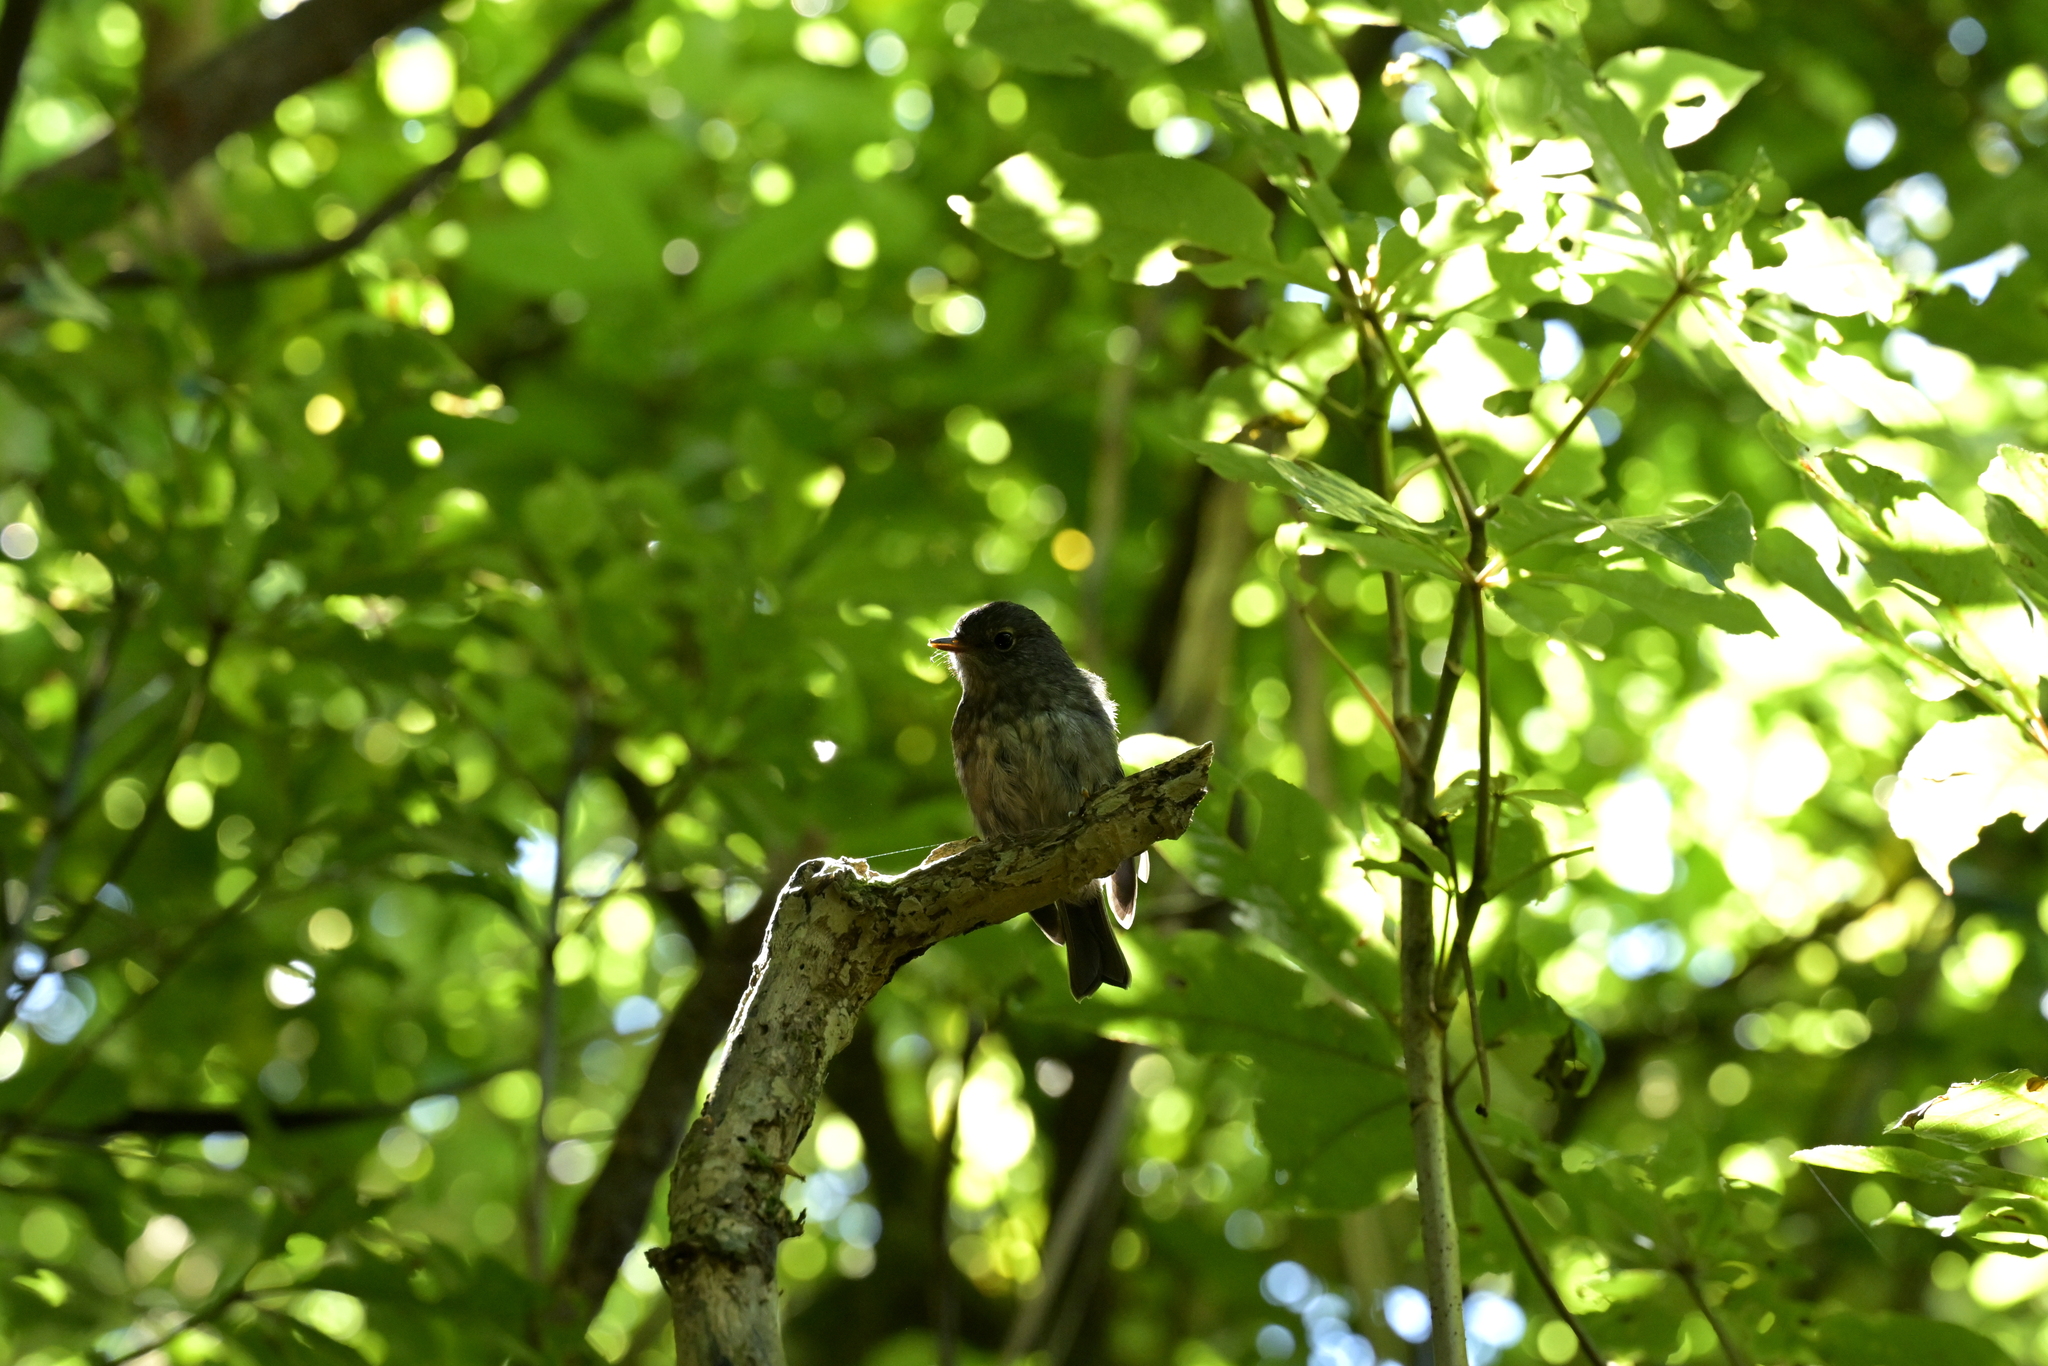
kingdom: Animalia
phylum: Chordata
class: Aves
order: Passeriformes
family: Petroicidae
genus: Petroica
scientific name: Petroica australis
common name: New zealand robin
